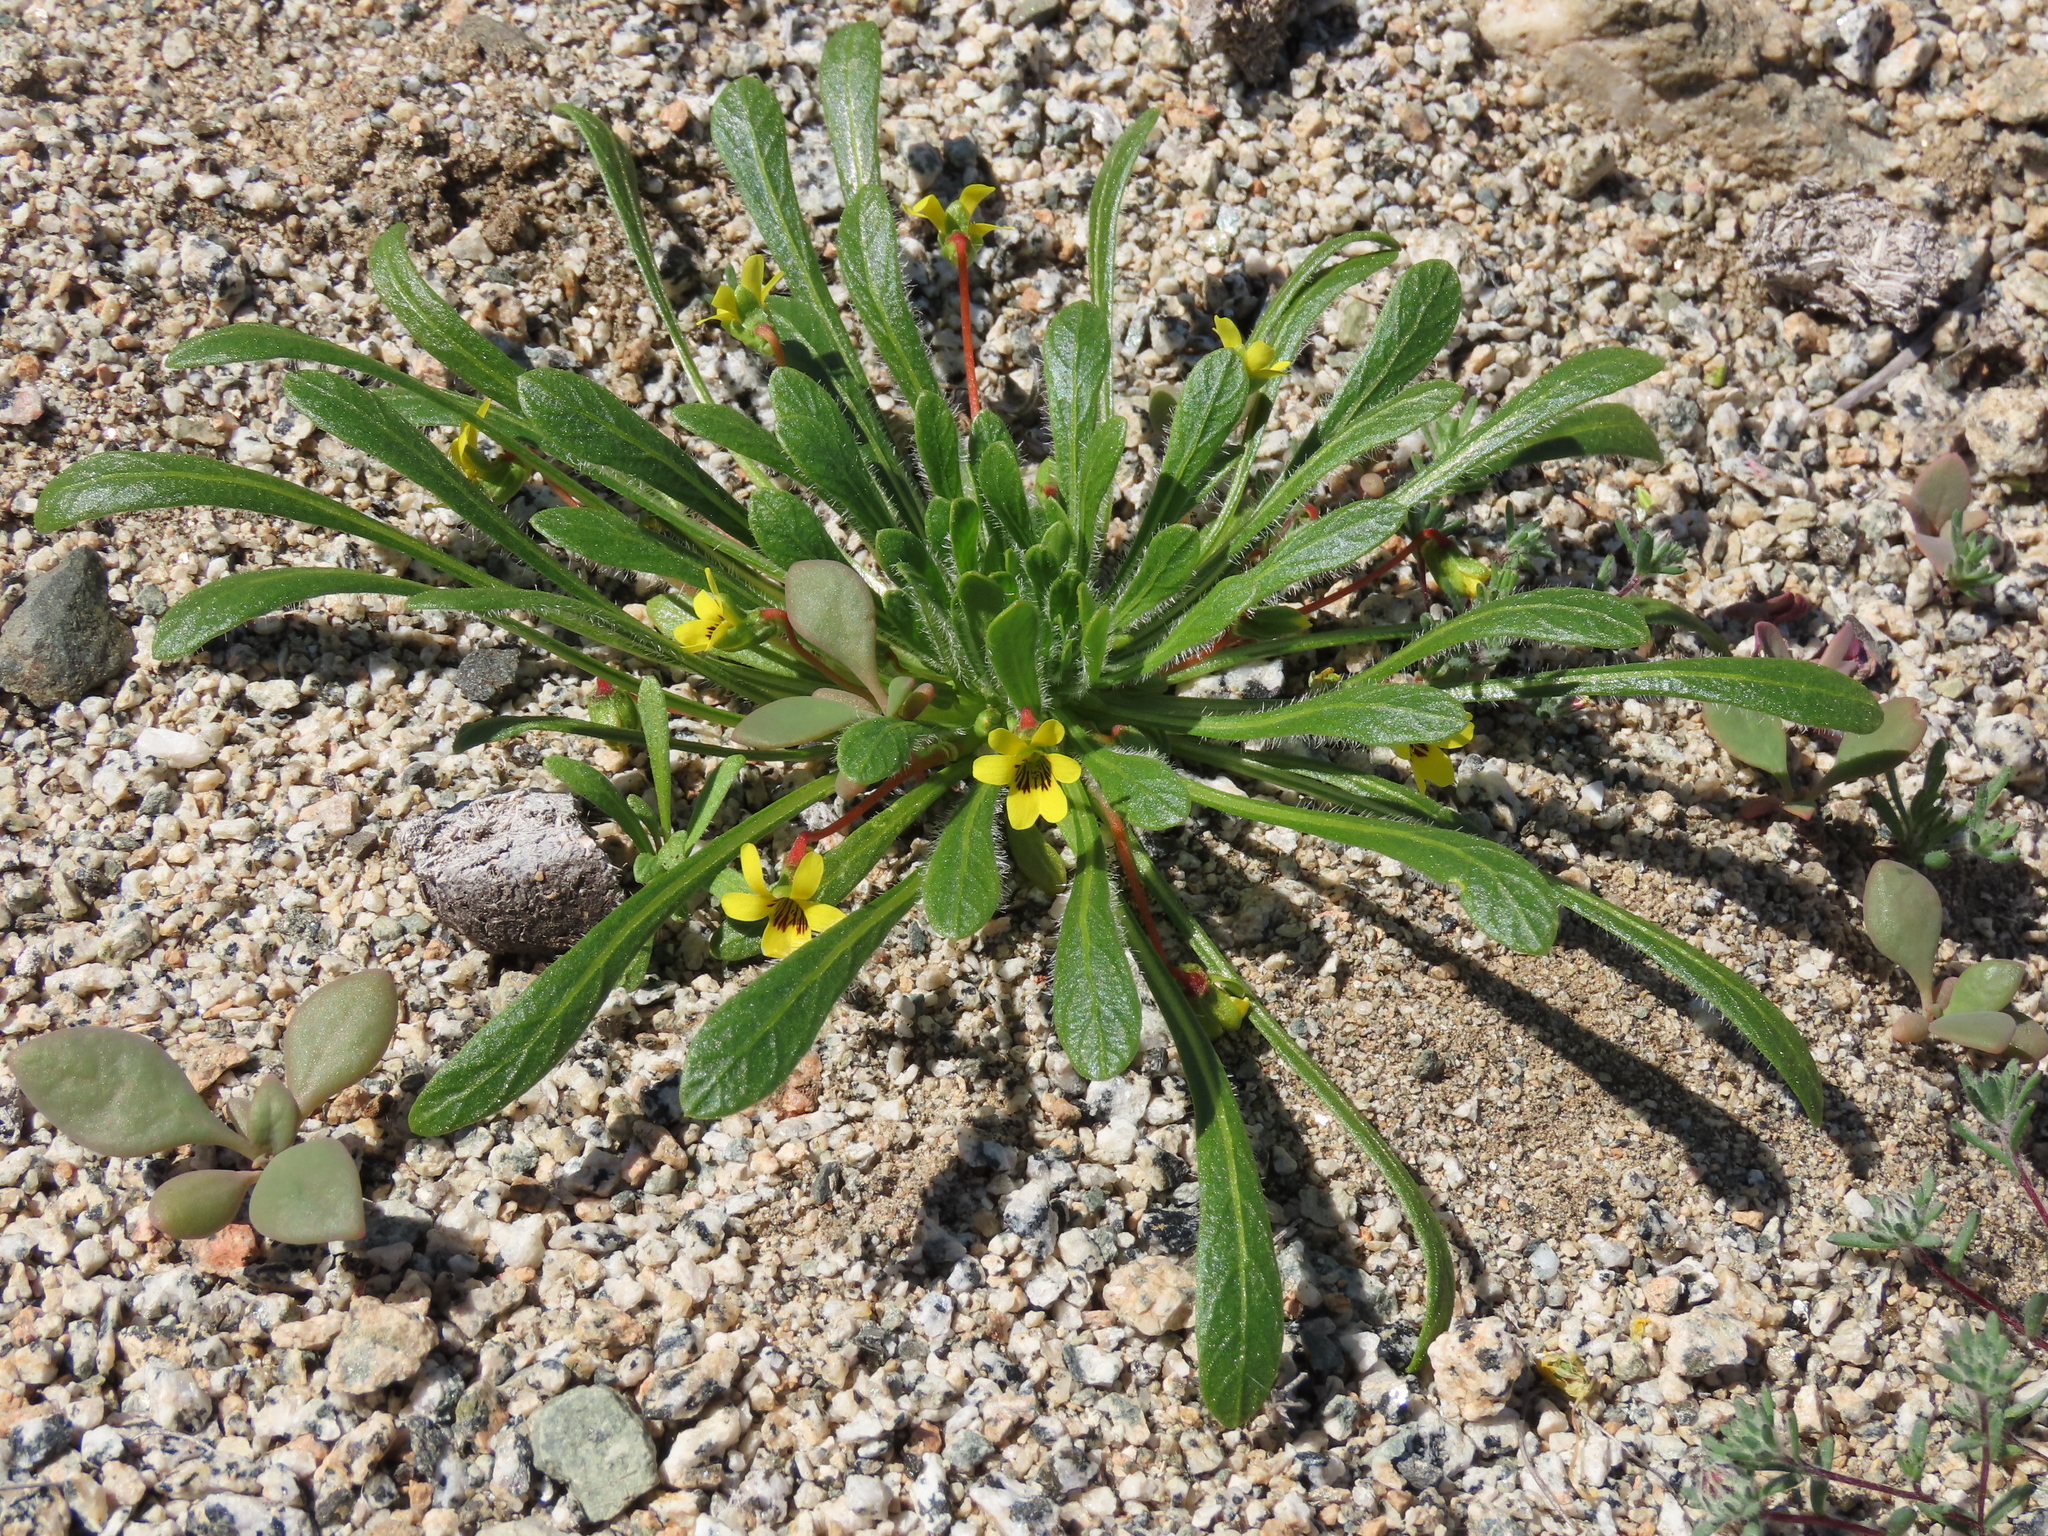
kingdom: Plantae
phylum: Tracheophyta
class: Magnoliopsida
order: Malpighiales
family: Violaceae
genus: Viola
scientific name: Viola polypoda
